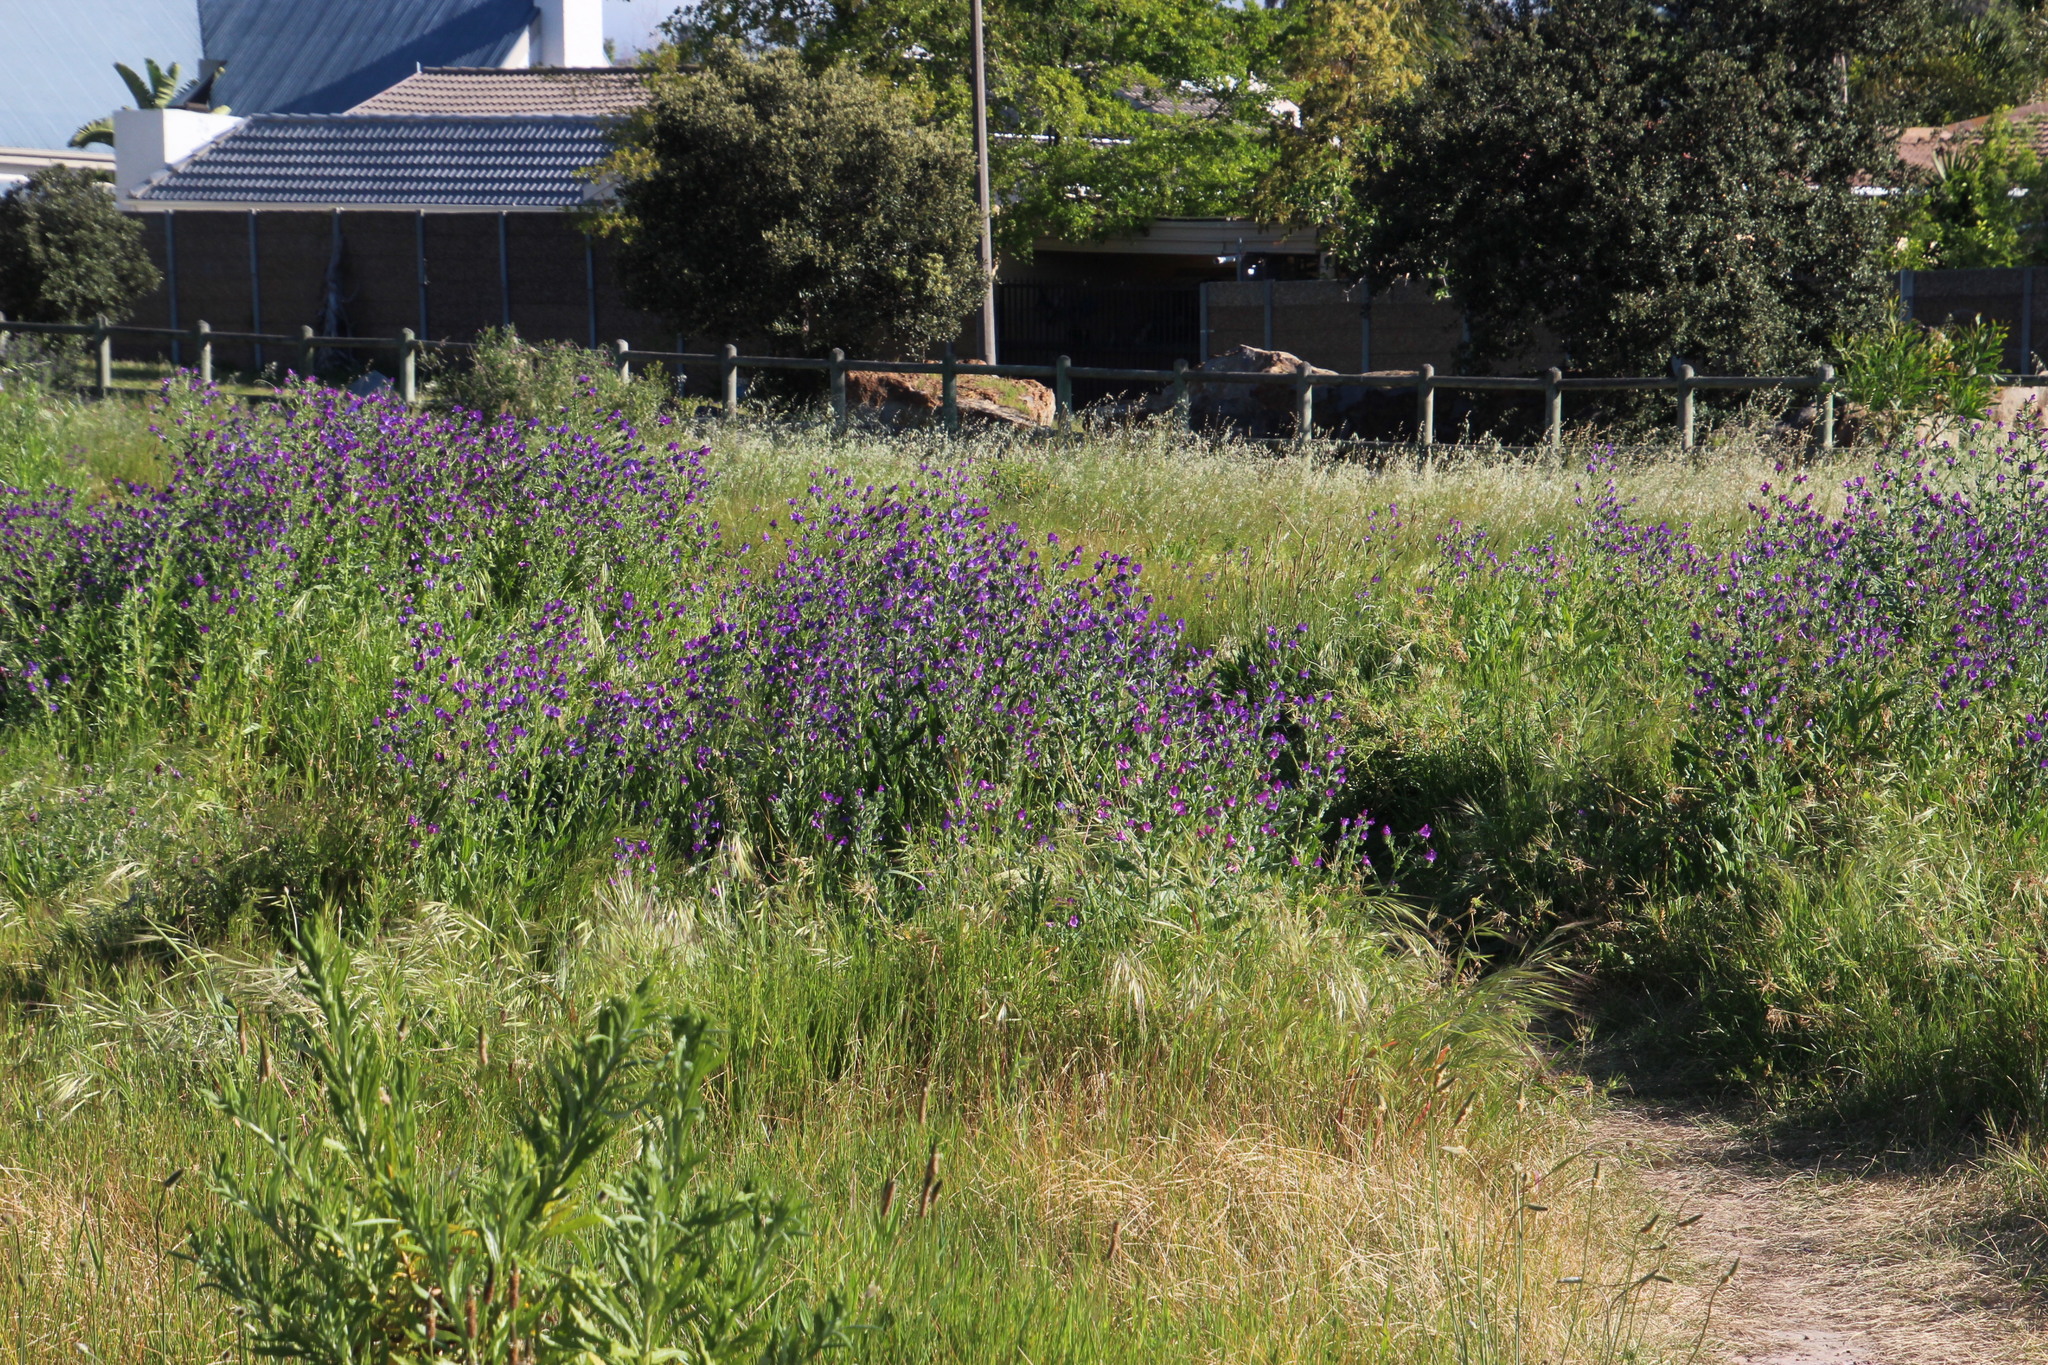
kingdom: Plantae
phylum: Tracheophyta
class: Magnoliopsida
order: Boraginales
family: Boraginaceae
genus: Echium
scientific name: Echium plantagineum
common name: Purple viper's-bugloss
